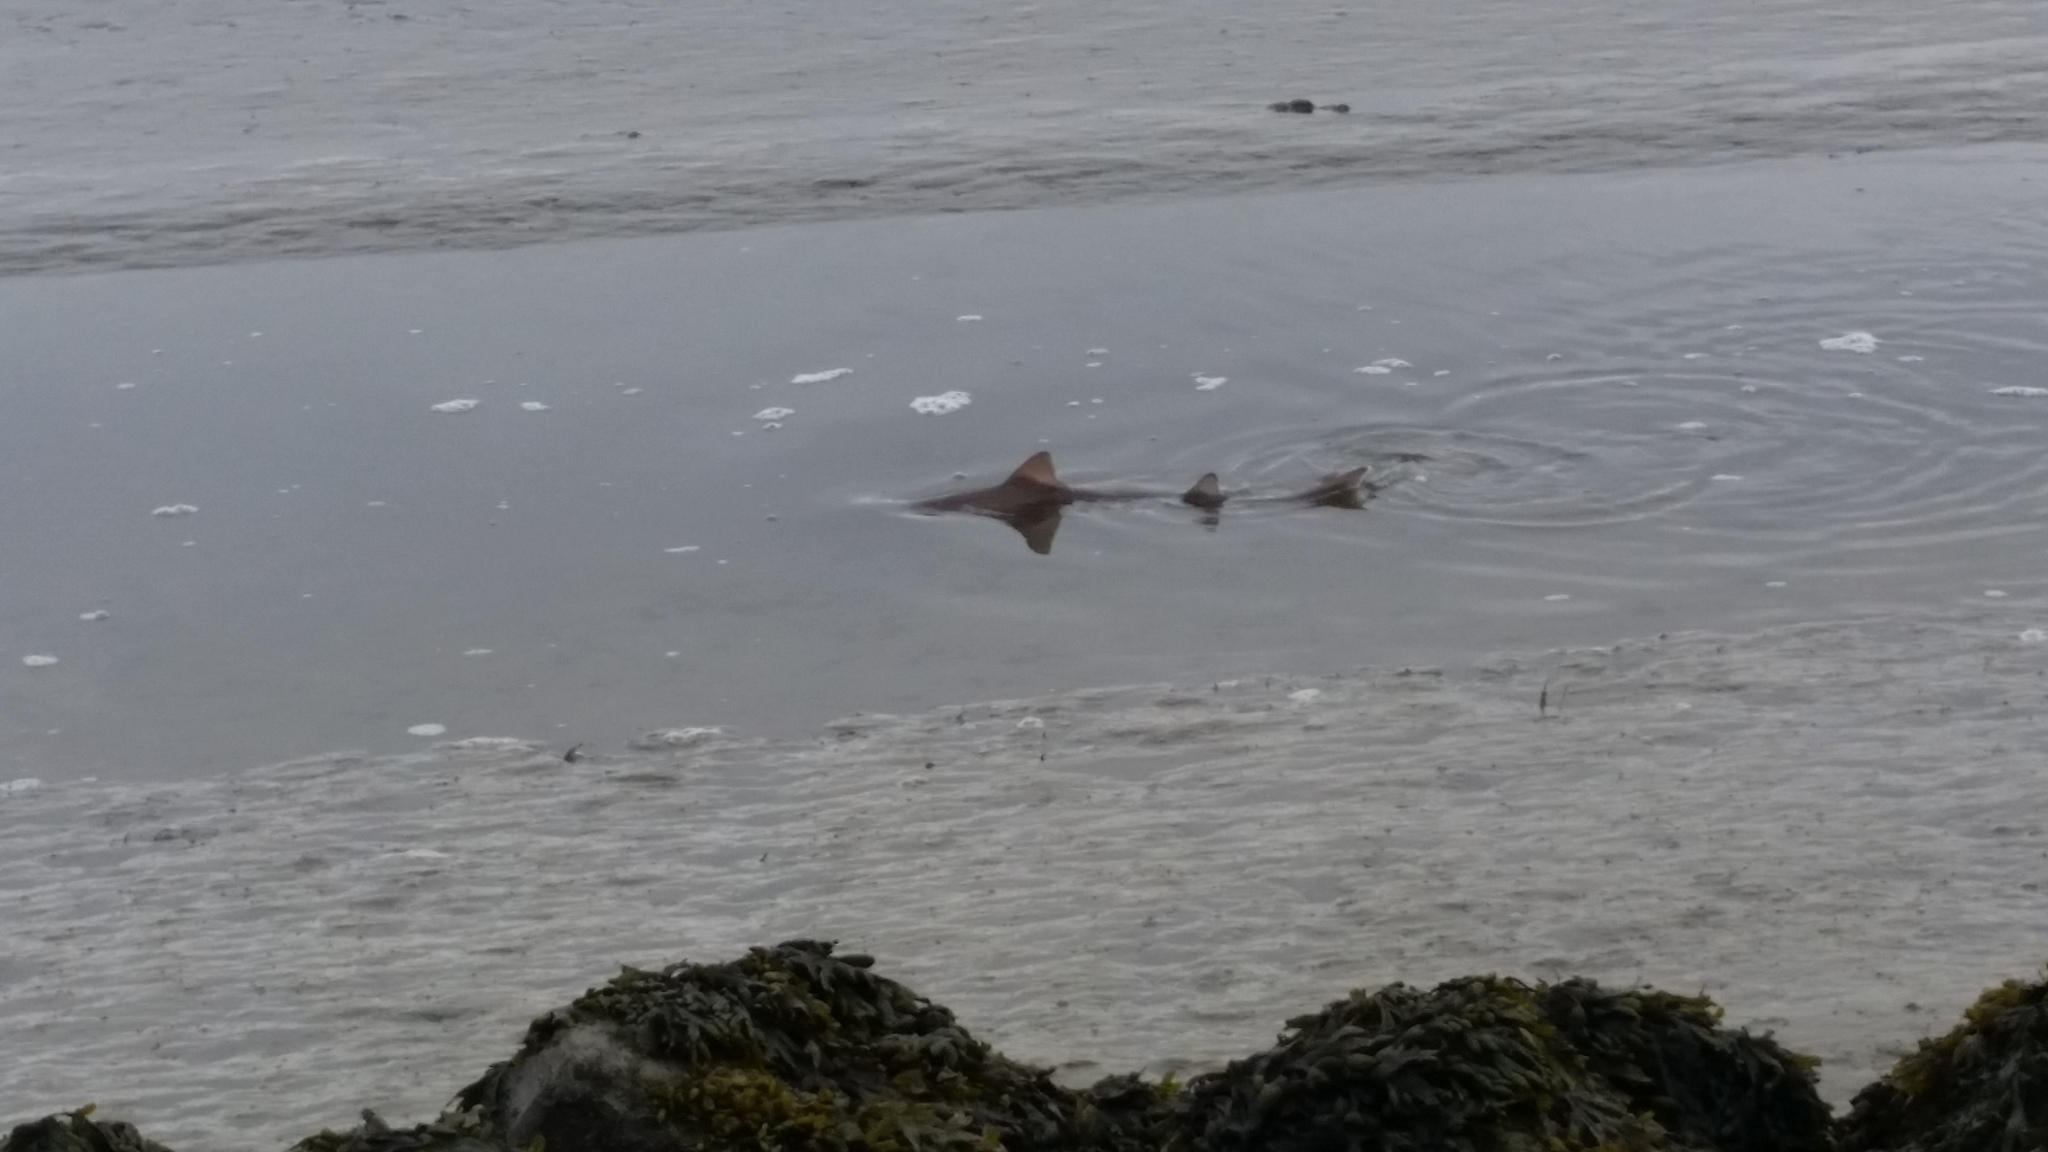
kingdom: Animalia
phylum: Chordata
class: Elasmobranchii
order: Carcharhiniformes
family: Triakidae
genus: Mustelus
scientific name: Mustelus asterias
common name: Starry smooth hound
